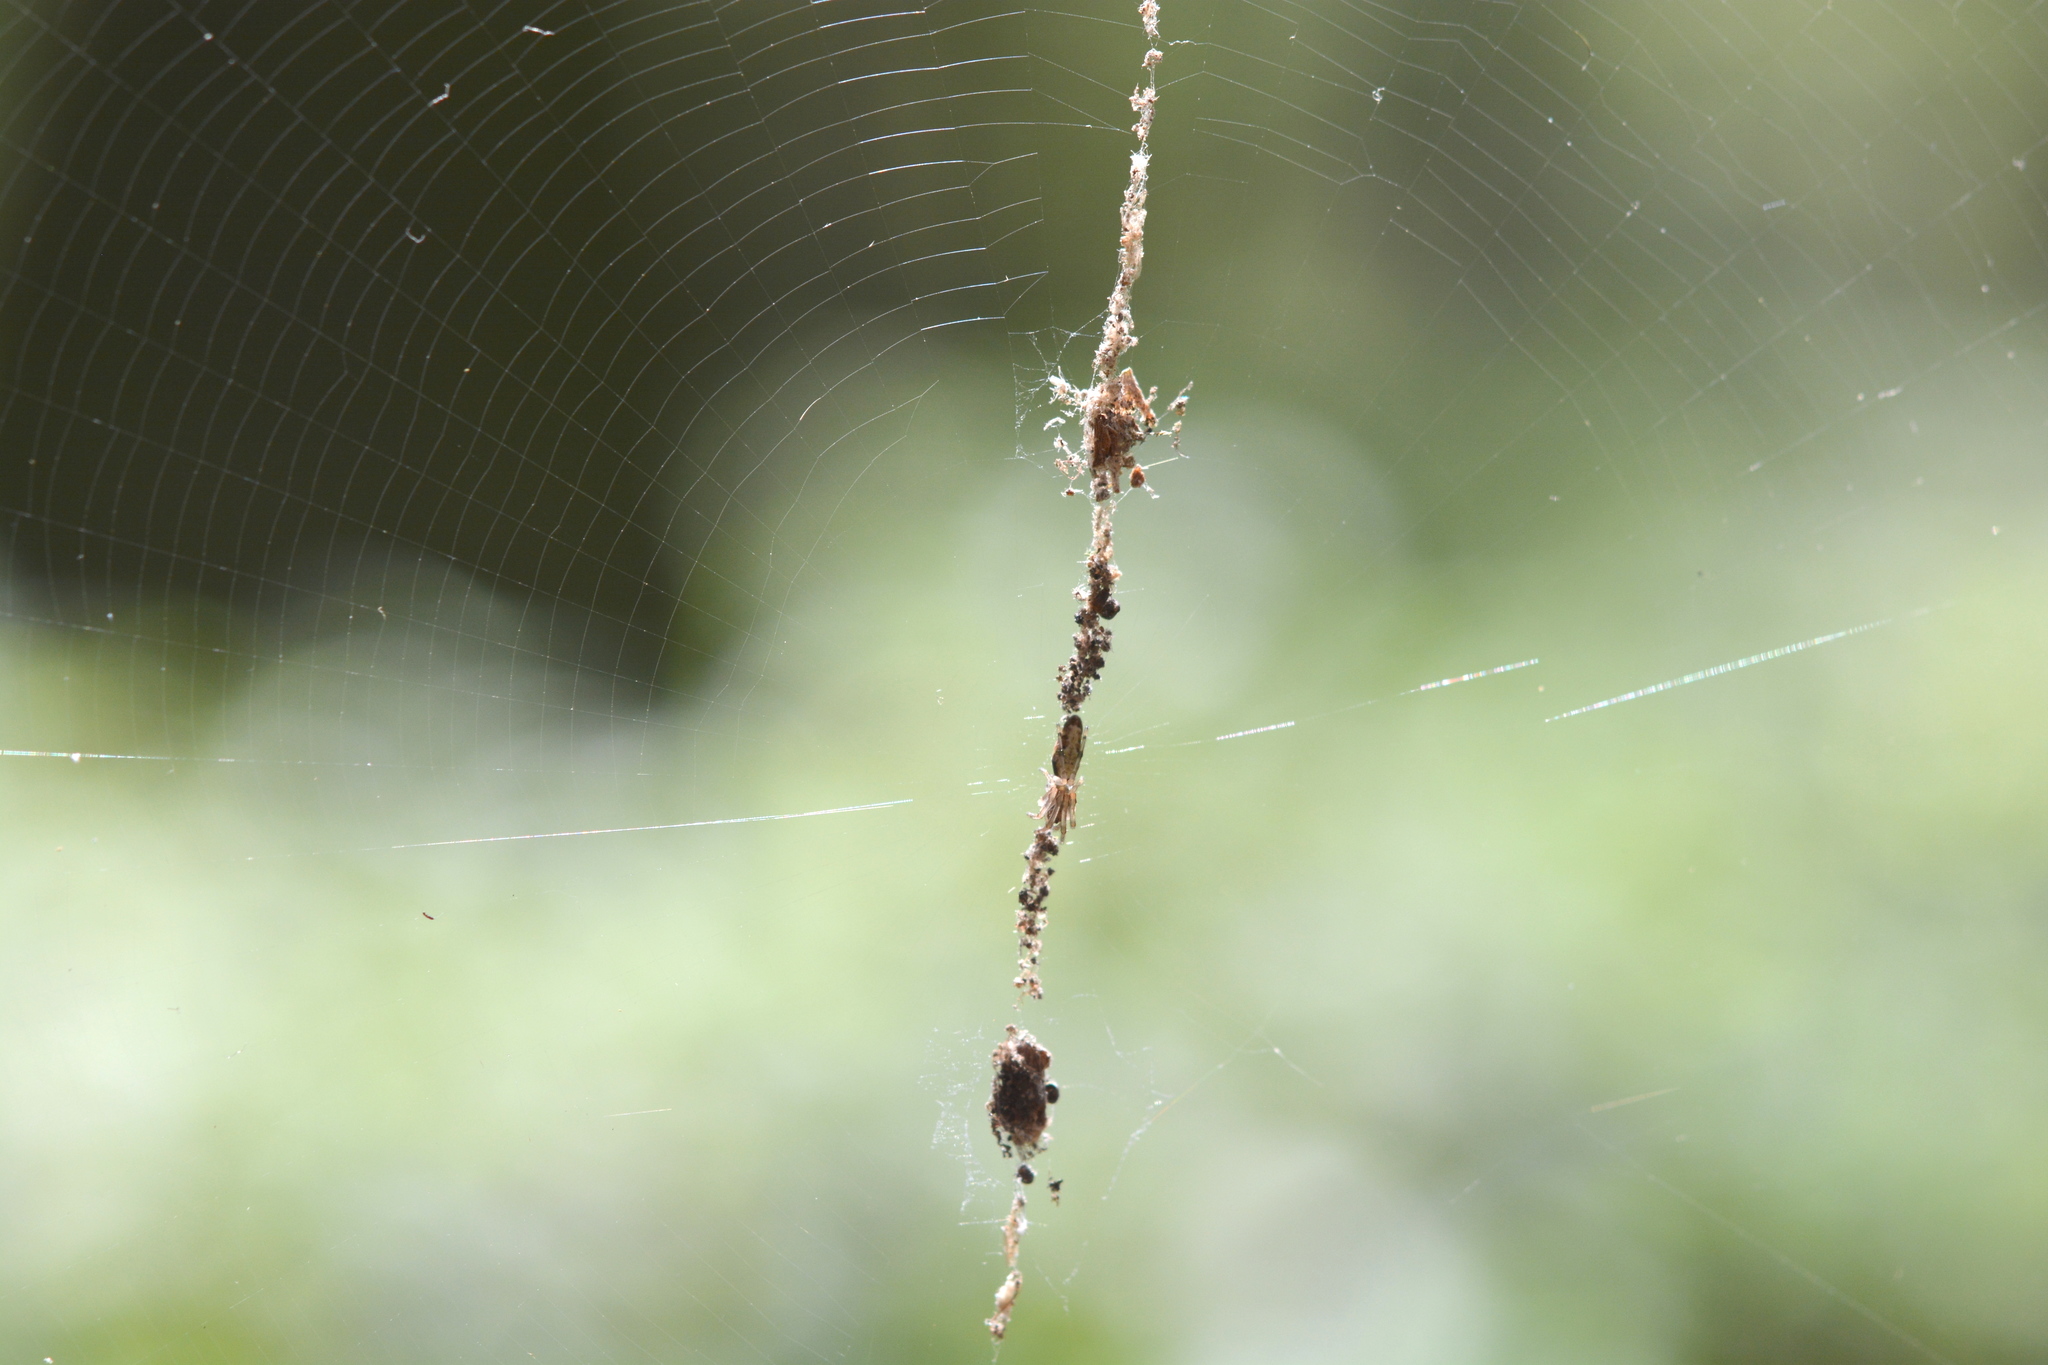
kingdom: Animalia
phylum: Arthropoda
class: Arachnida
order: Araneae
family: Araneidae
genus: Cyclosa
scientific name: Cyclosa caroli
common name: Orb weavers
